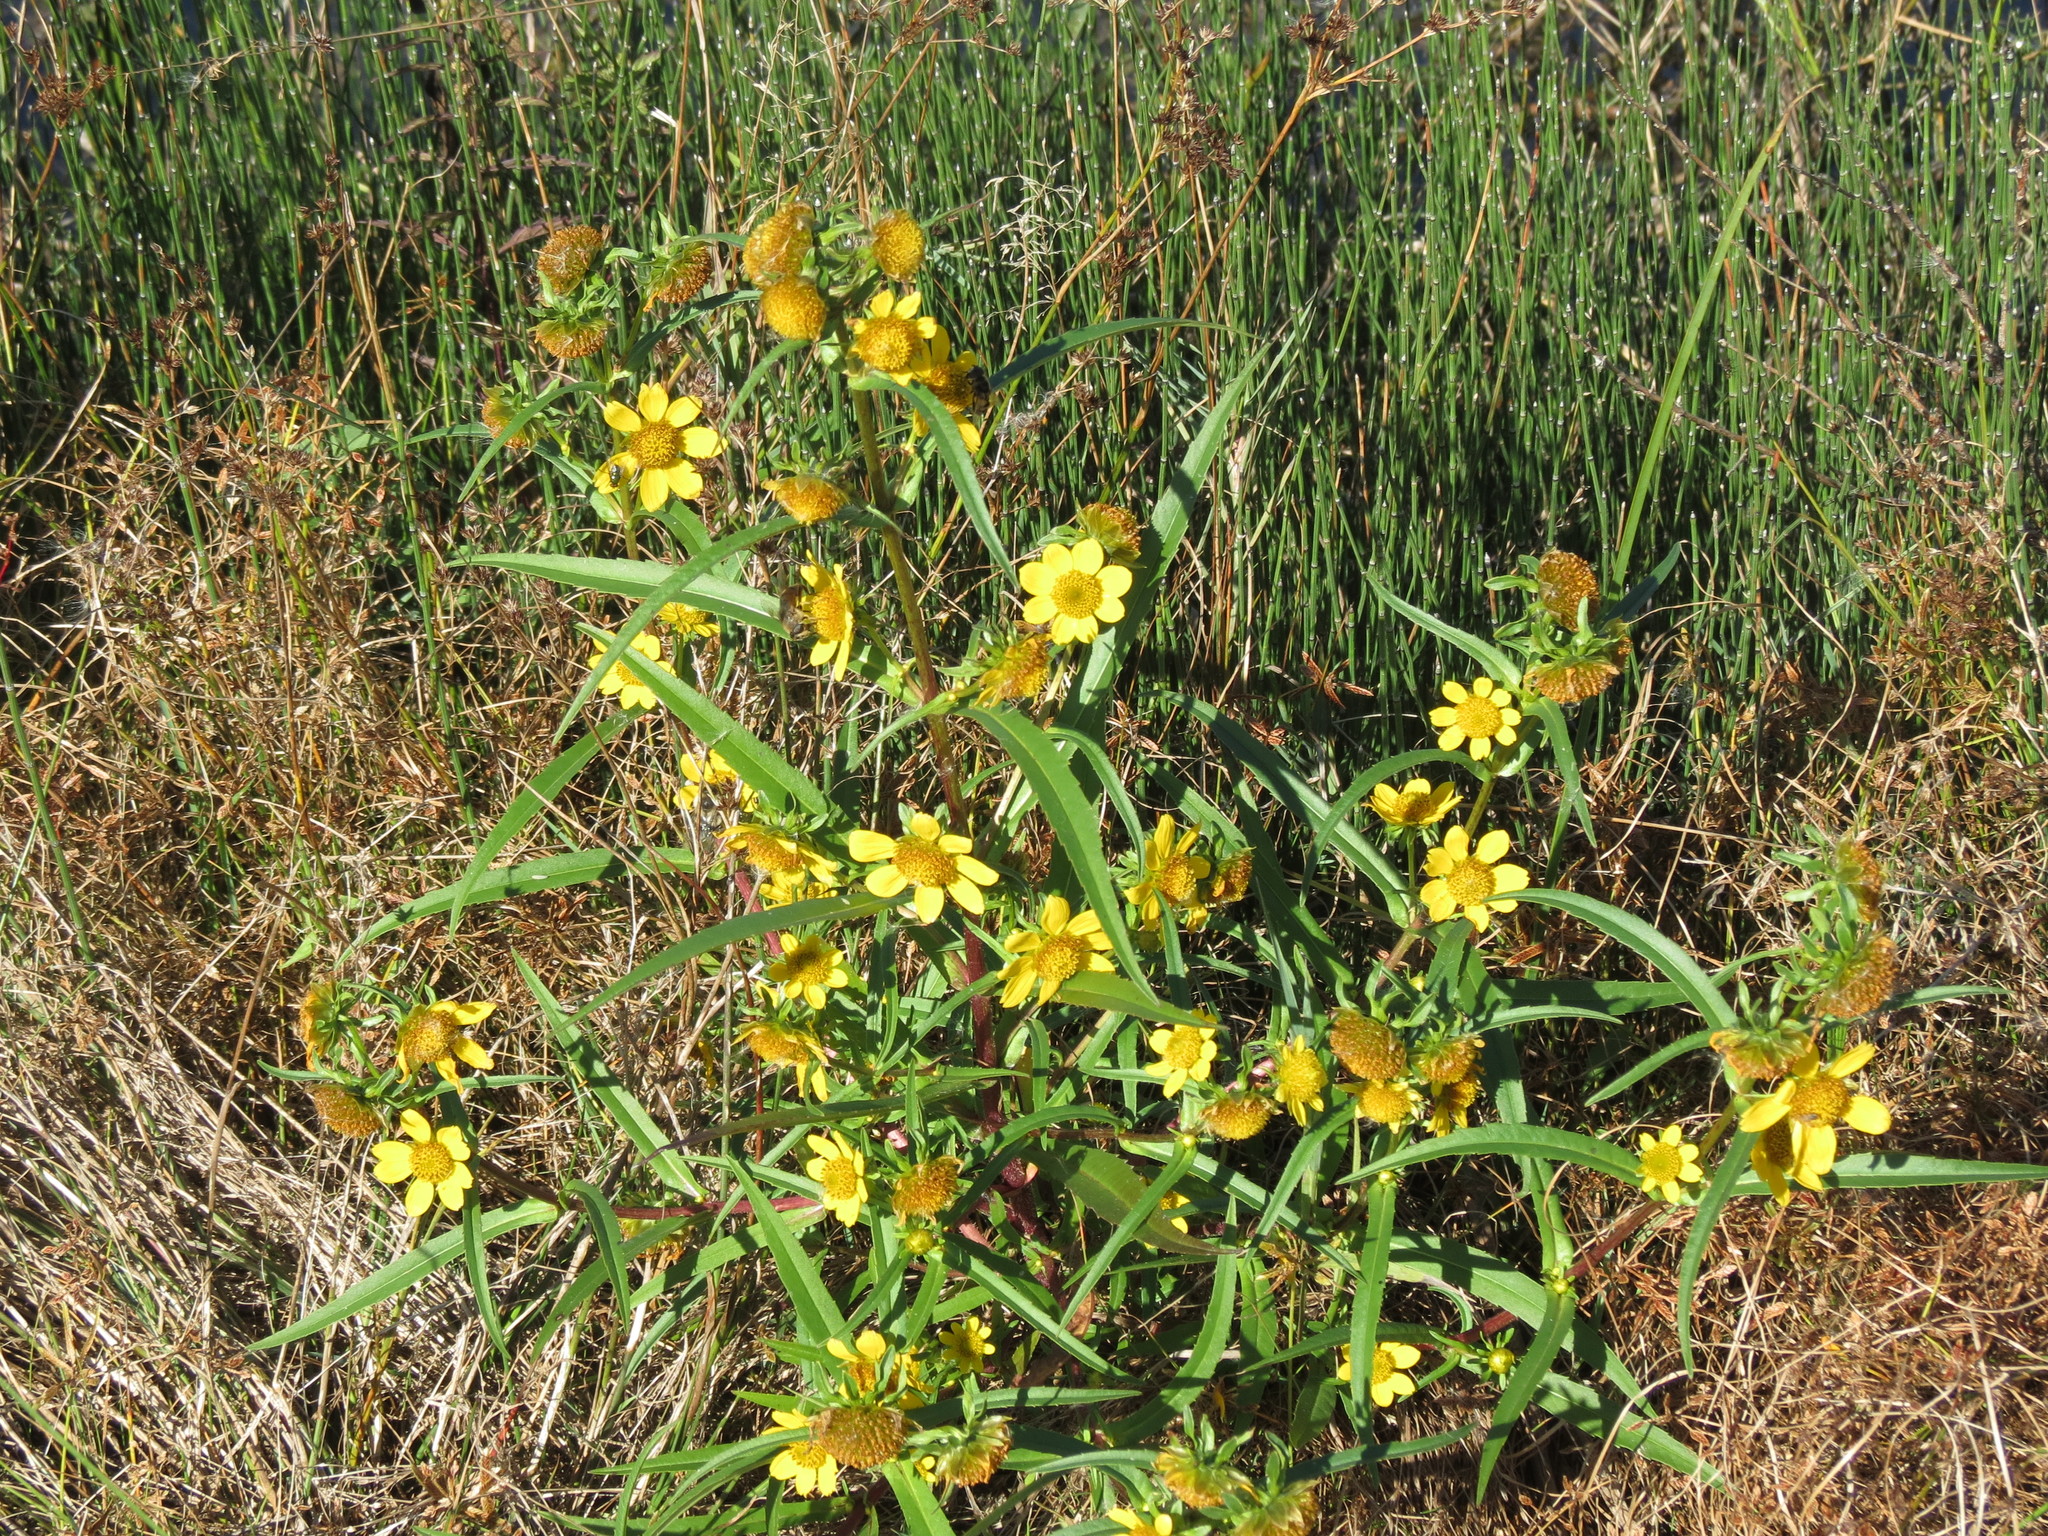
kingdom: Plantae
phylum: Tracheophyta
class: Magnoliopsida
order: Asterales
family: Asteraceae
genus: Bidens
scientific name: Bidens cernua
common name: Nodding bur-marigold
